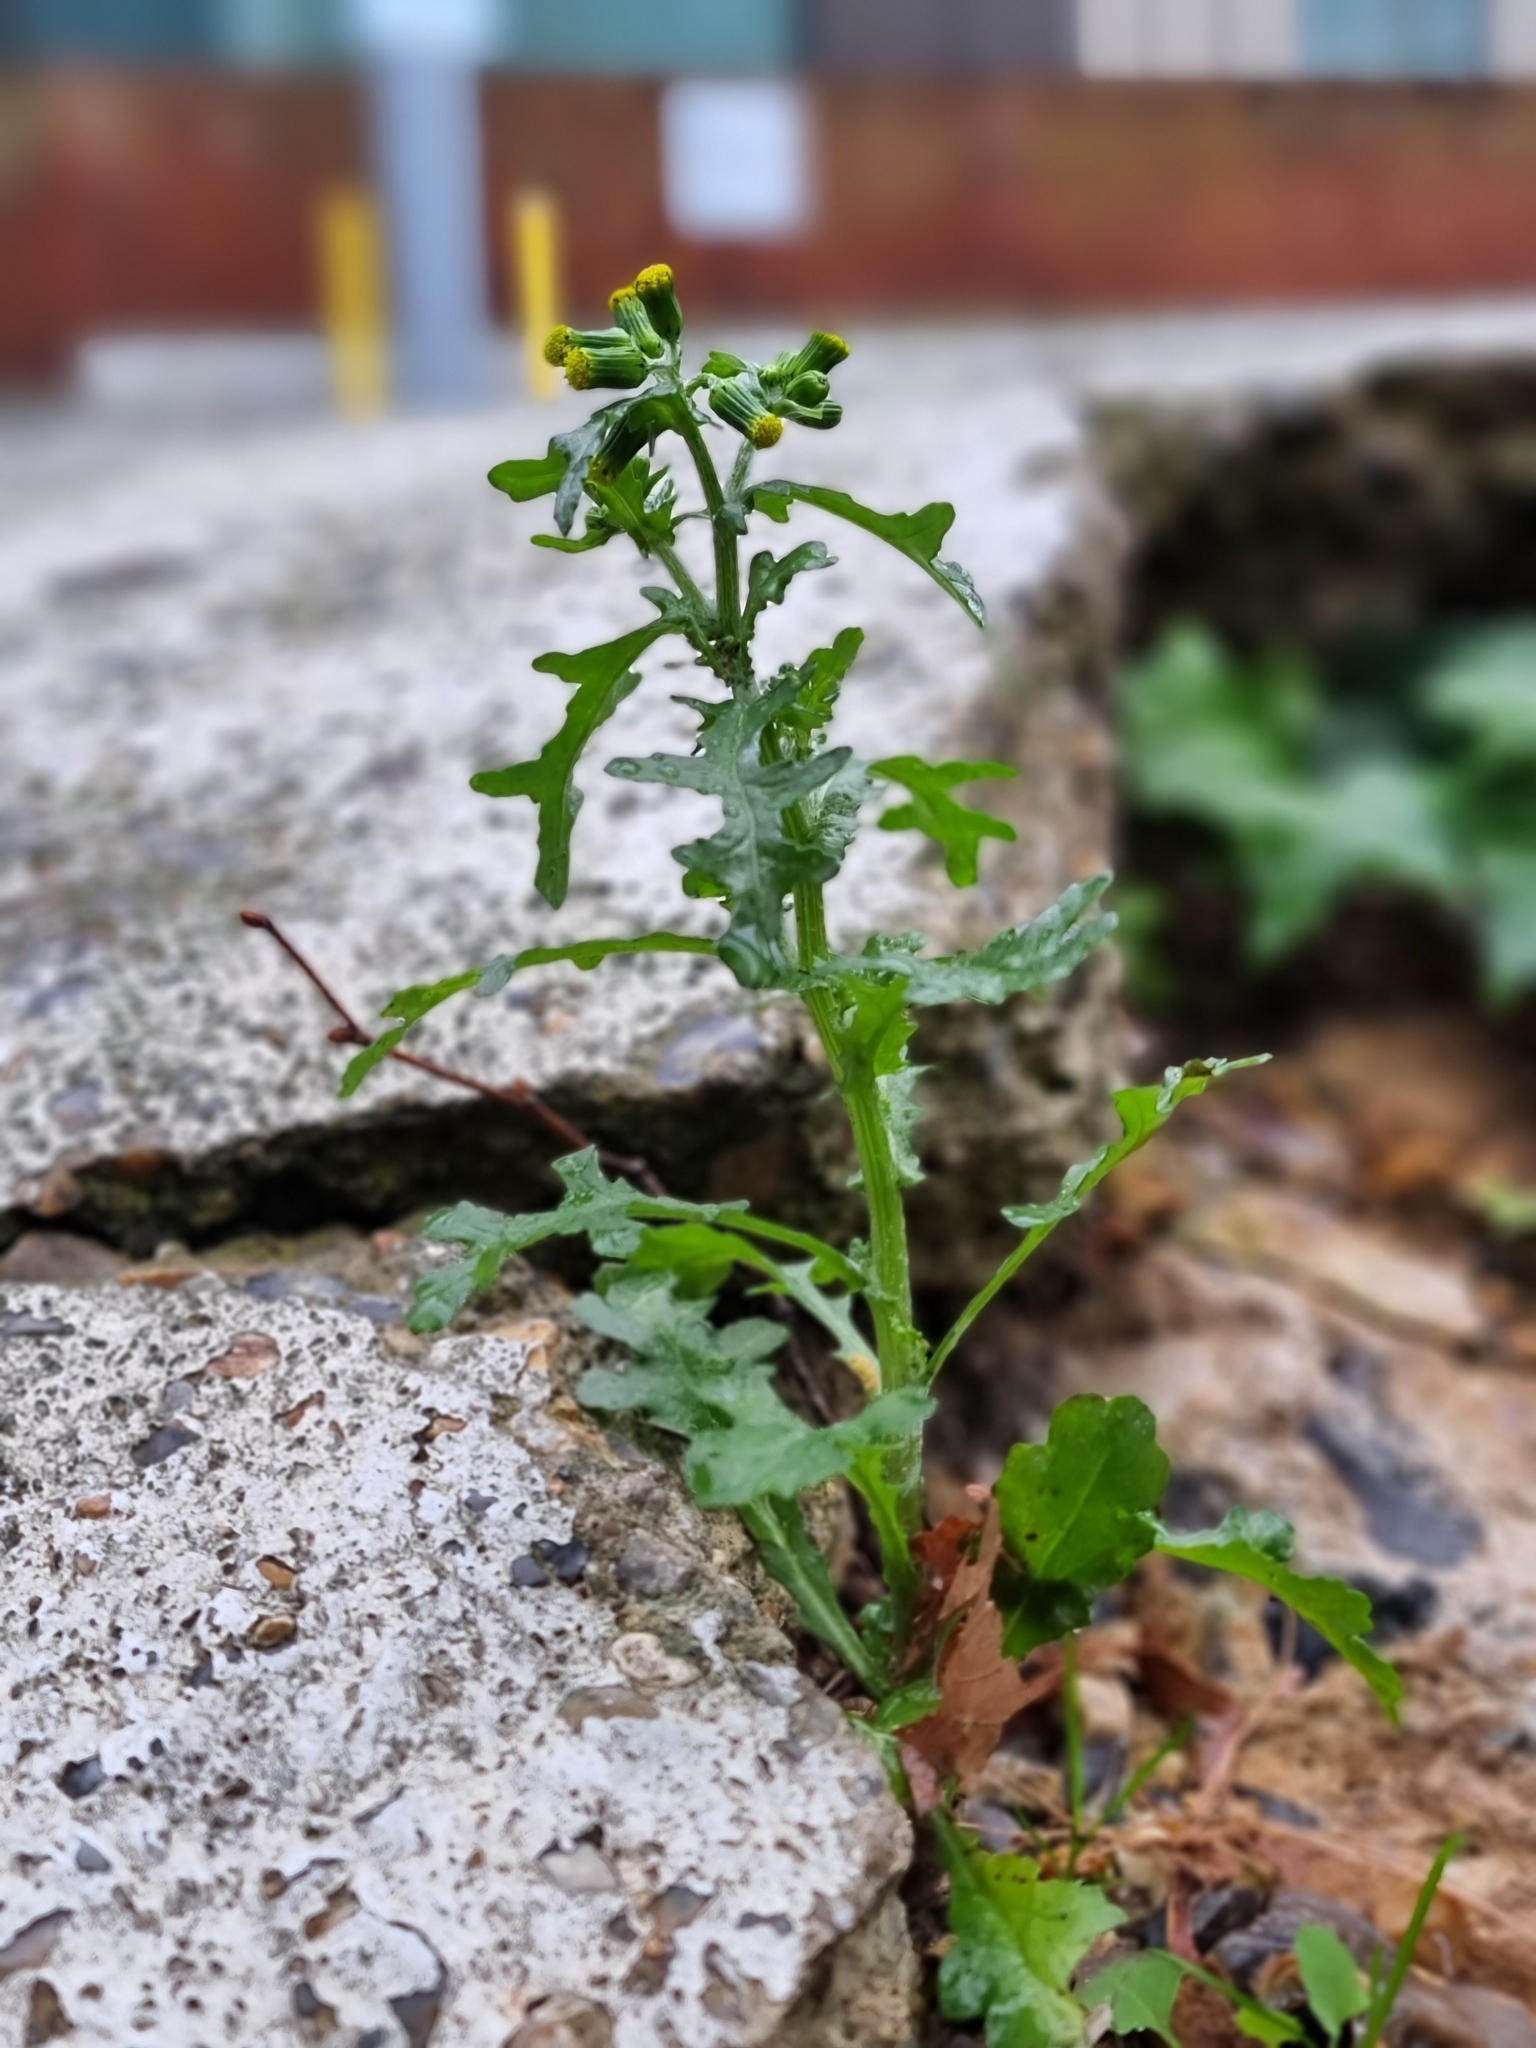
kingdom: Plantae
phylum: Tracheophyta
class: Magnoliopsida
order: Asterales
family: Asteraceae
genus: Senecio
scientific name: Senecio vulgaris
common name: Old-man-in-the-spring
